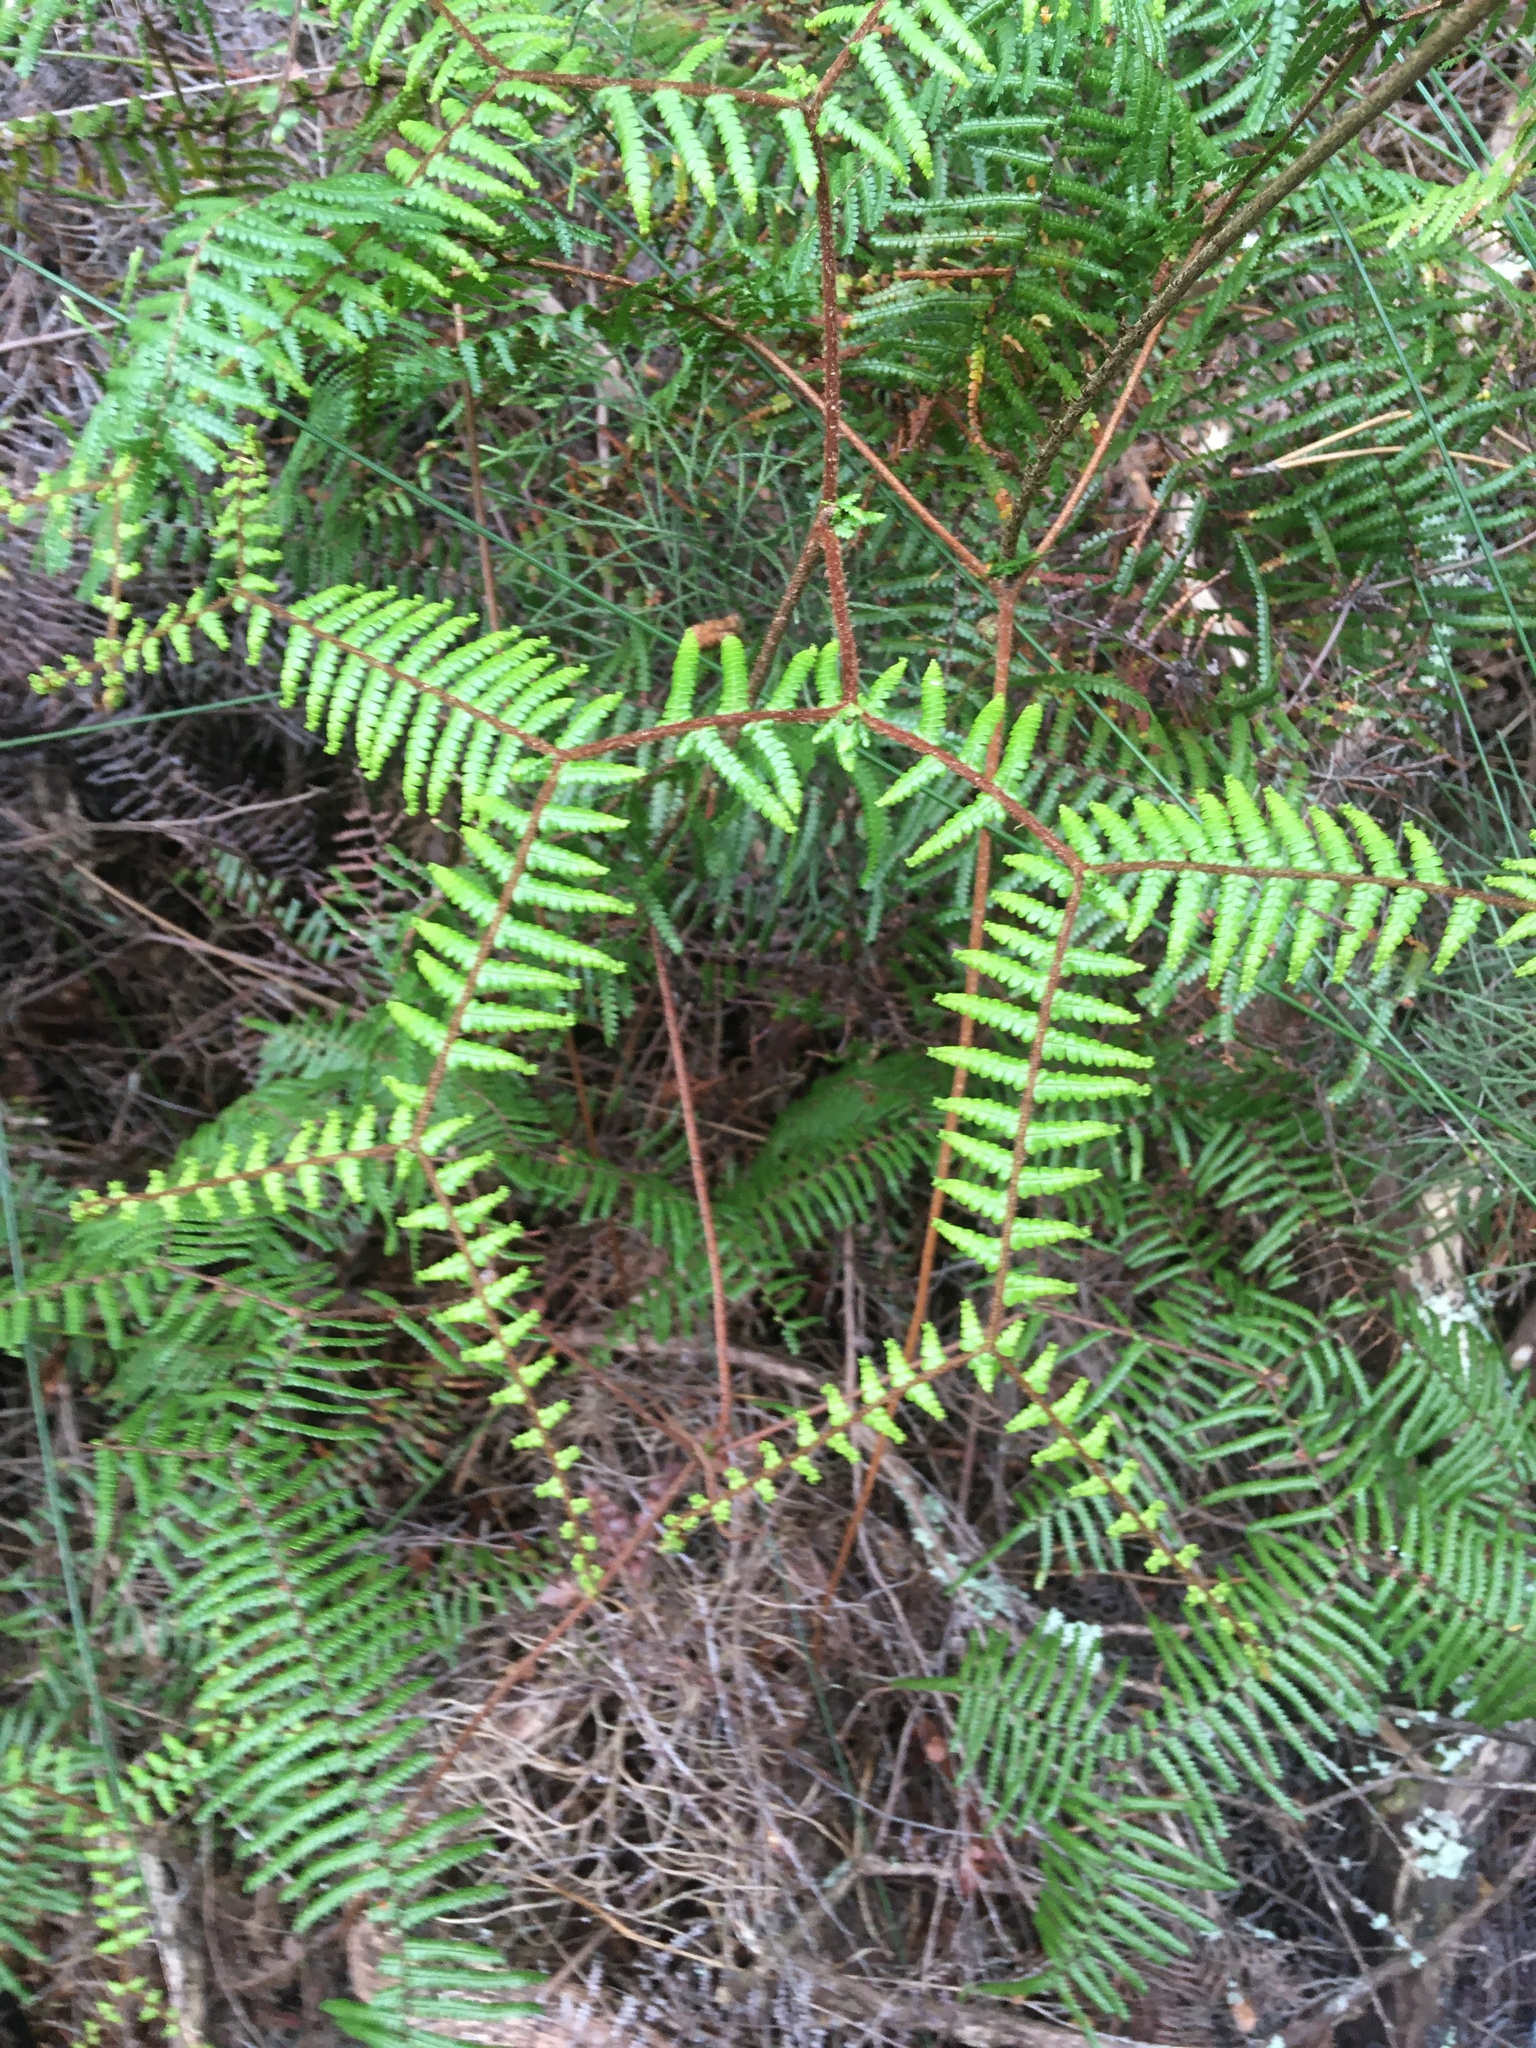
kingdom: Plantae
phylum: Tracheophyta
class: Polypodiopsida
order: Gleicheniales
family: Gleicheniaceae
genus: Gleichenia
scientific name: Gleichenia microphylla
